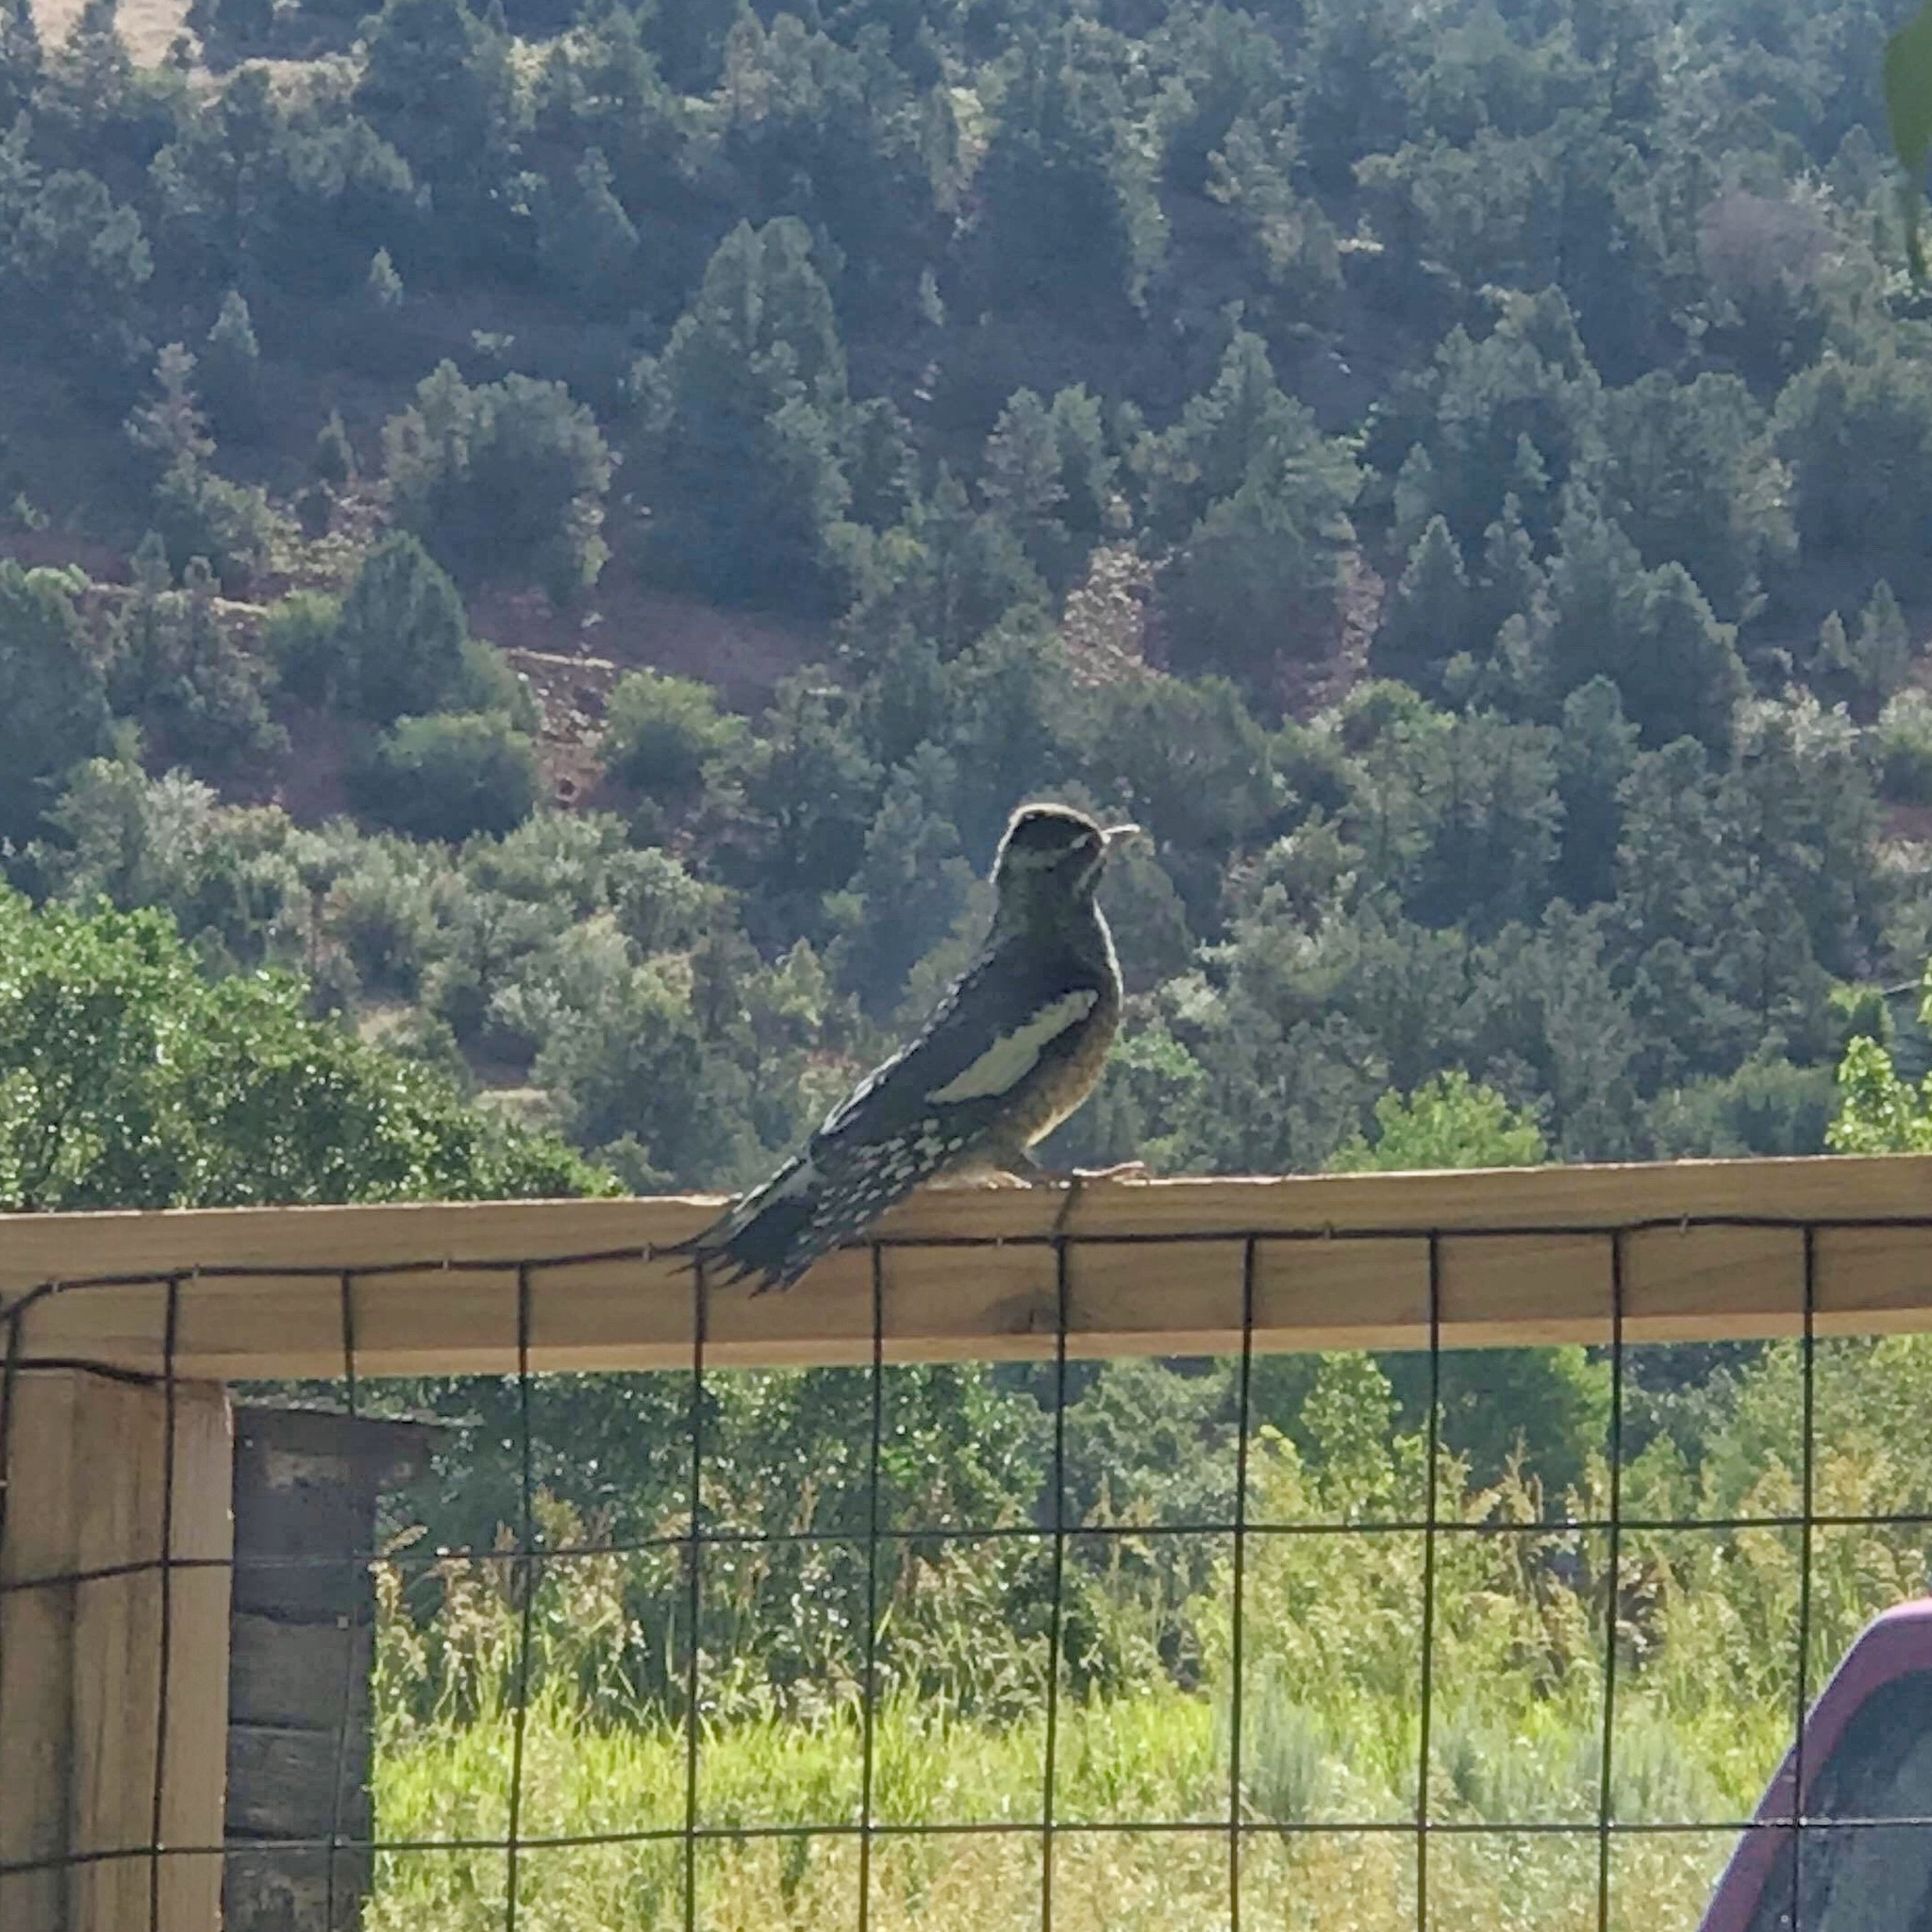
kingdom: Animalia
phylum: Chordata
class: Aves
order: Piciformes
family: Picidae
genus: Sphyrapicus
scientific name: Sphyrapicus thyroideus
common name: Williamson's sapsucker
